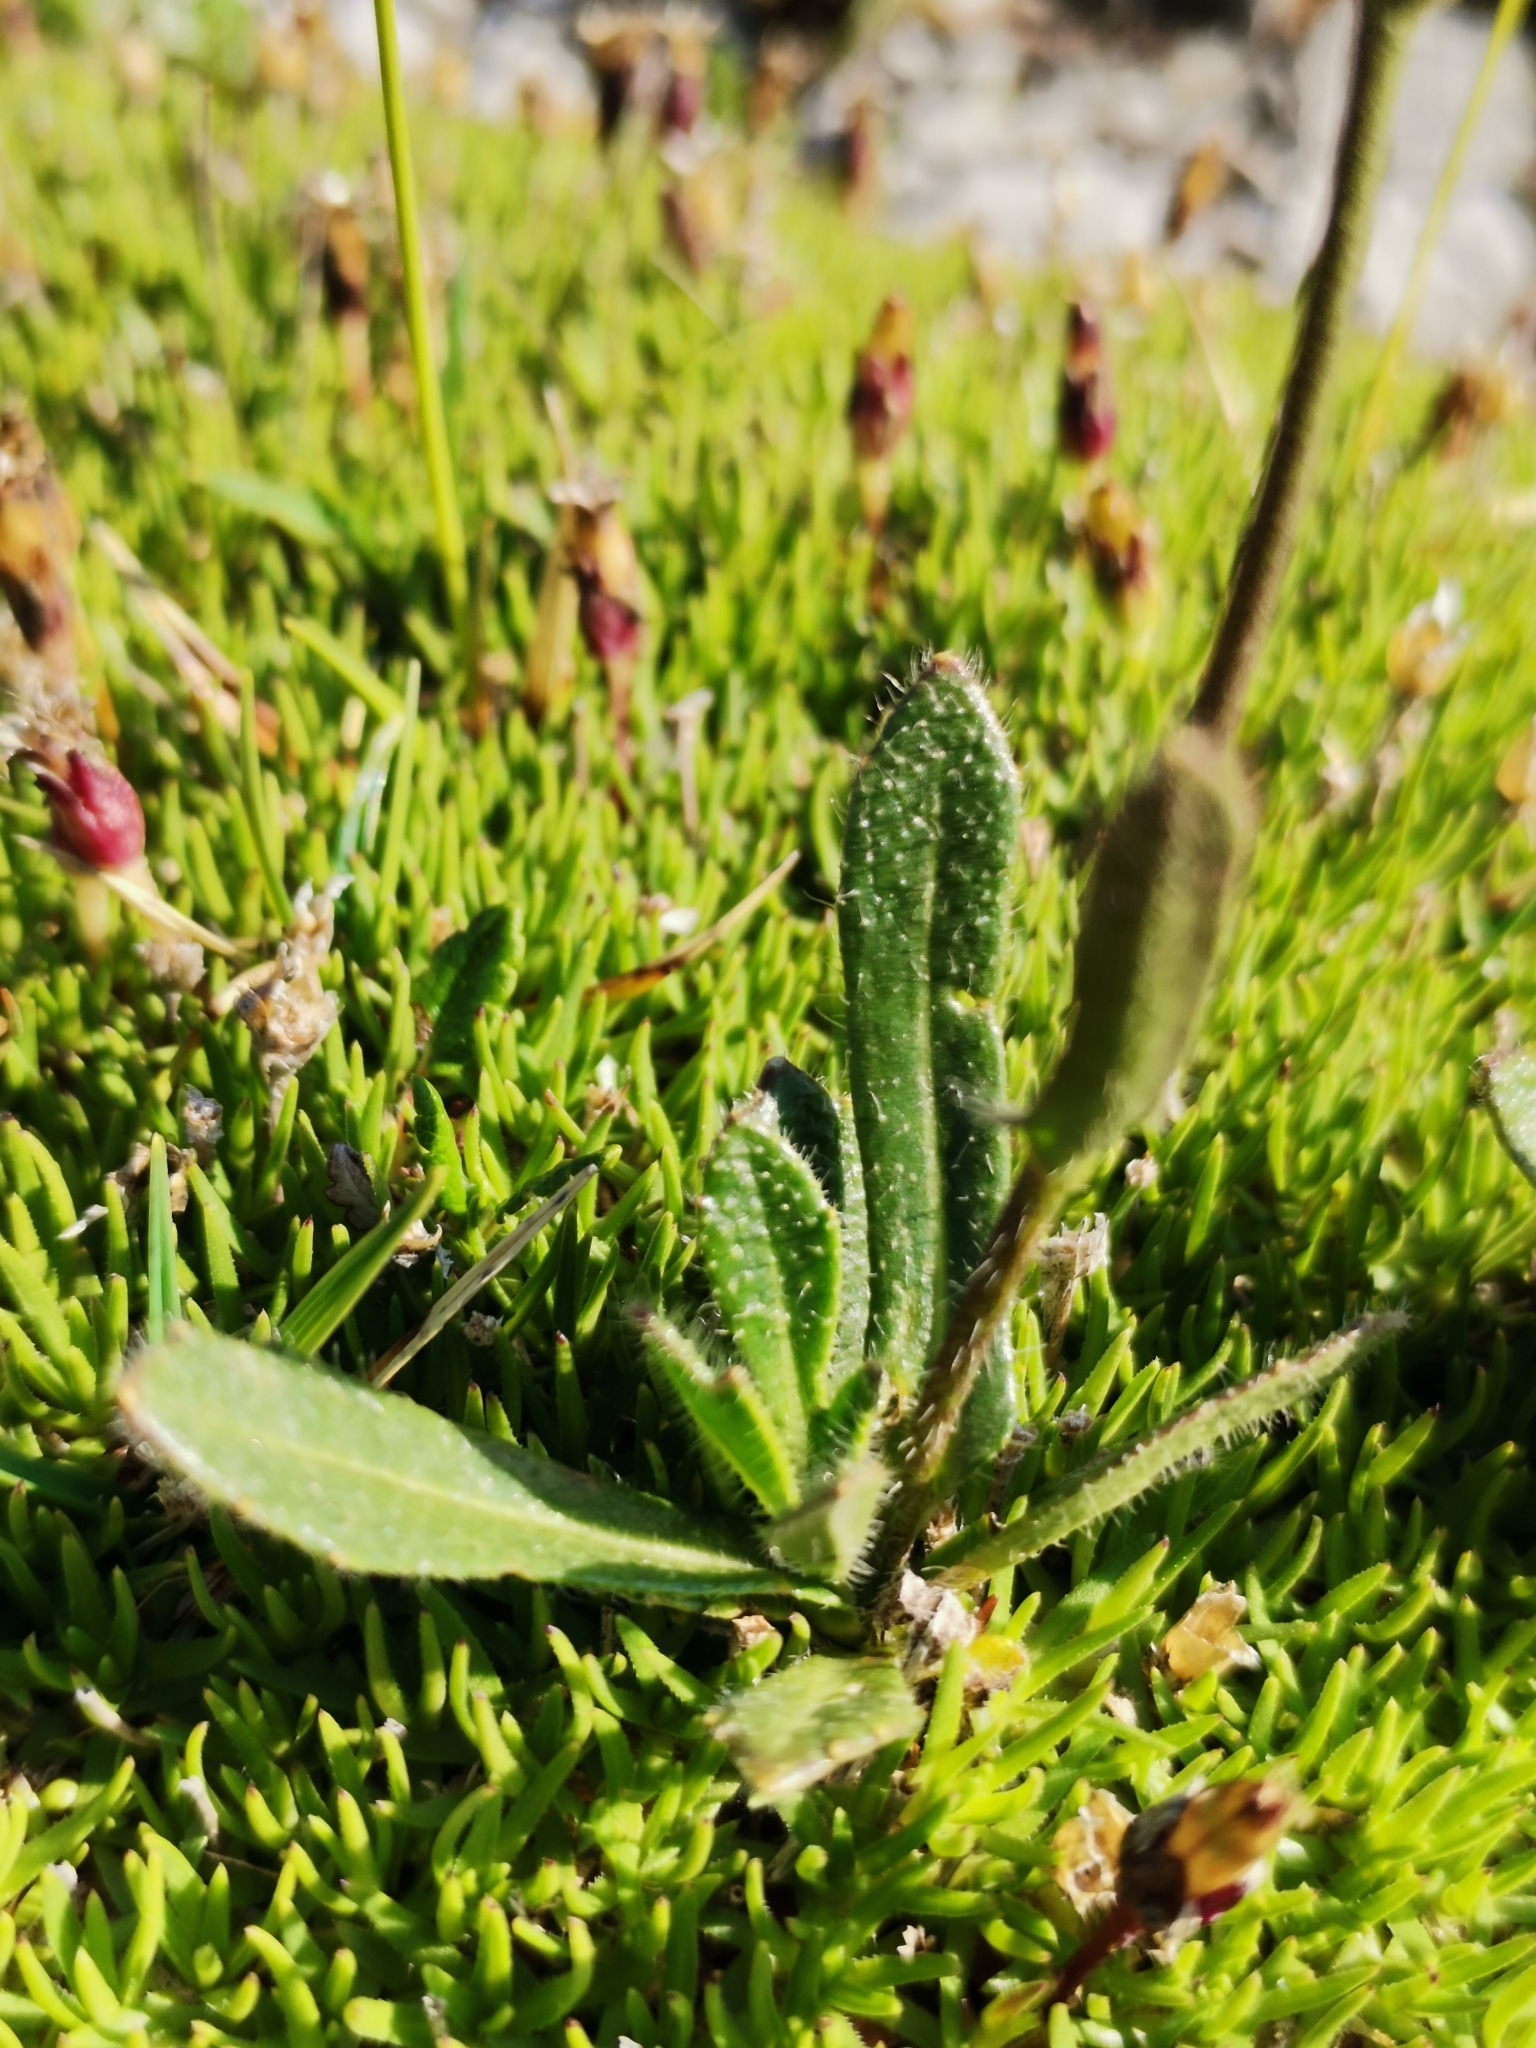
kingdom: Plantae
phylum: Tracheophyta
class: Magnoliopsida
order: Brassicales
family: Brassicaceae
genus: Biscutella
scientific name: Biscutella laevigata
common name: Buckler mustard
